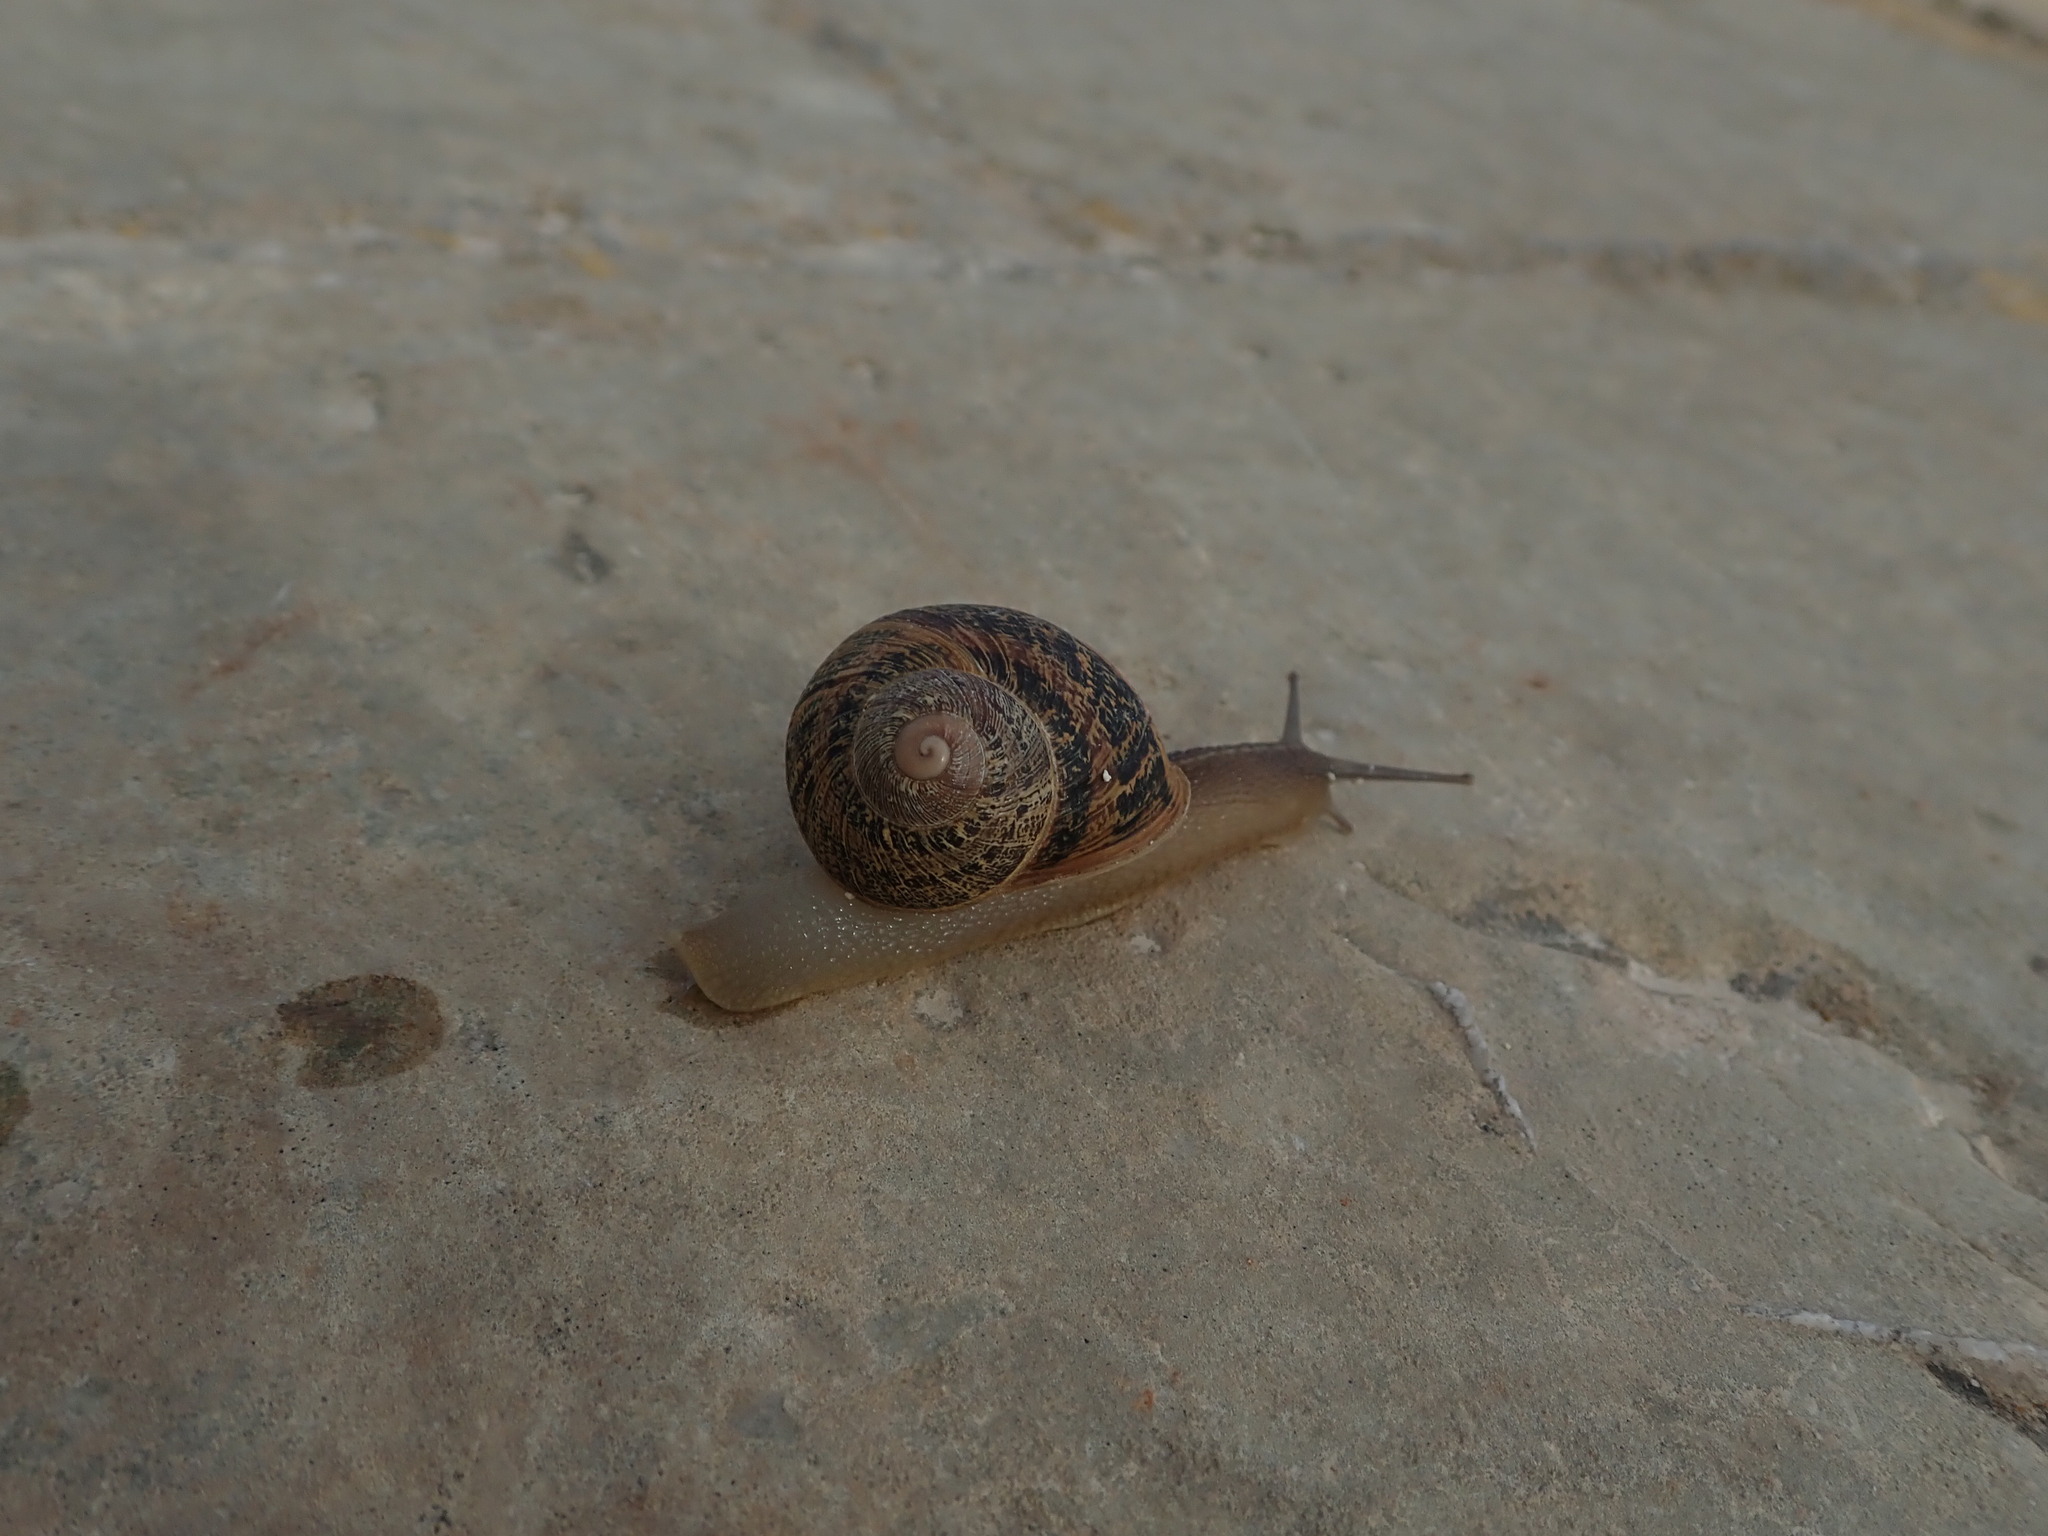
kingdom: Animalia
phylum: Mollusca
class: Gastropoda
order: Stylommatophora
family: Helicidae
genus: Cornu
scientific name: Cornu aspersum
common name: Brown garden snail
